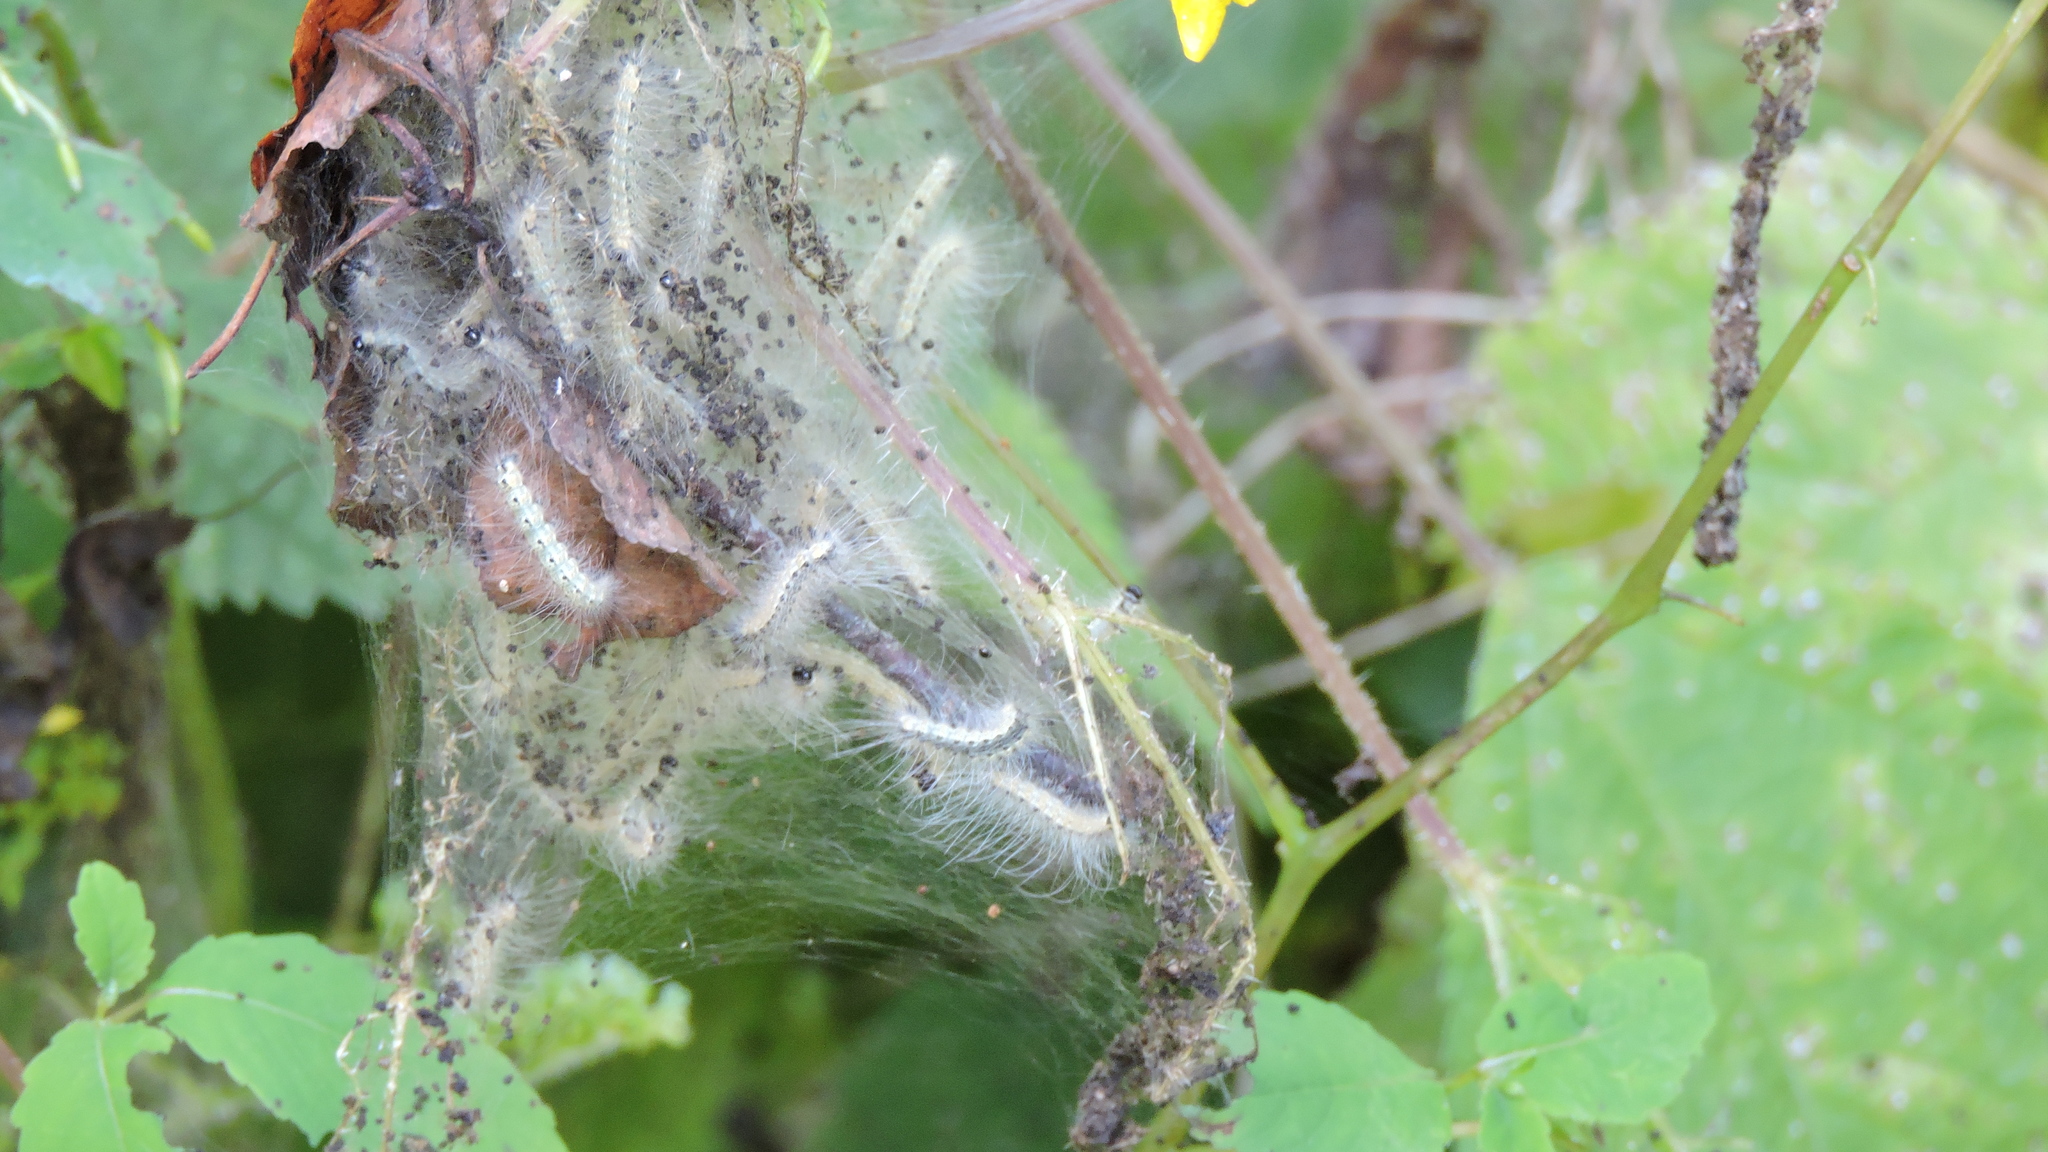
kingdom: Animalia
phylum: Arthropoda
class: Insecta
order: Lepidoptera
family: Erebidae
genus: Hyphantria
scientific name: Hyphantria cunea
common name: American white moth
